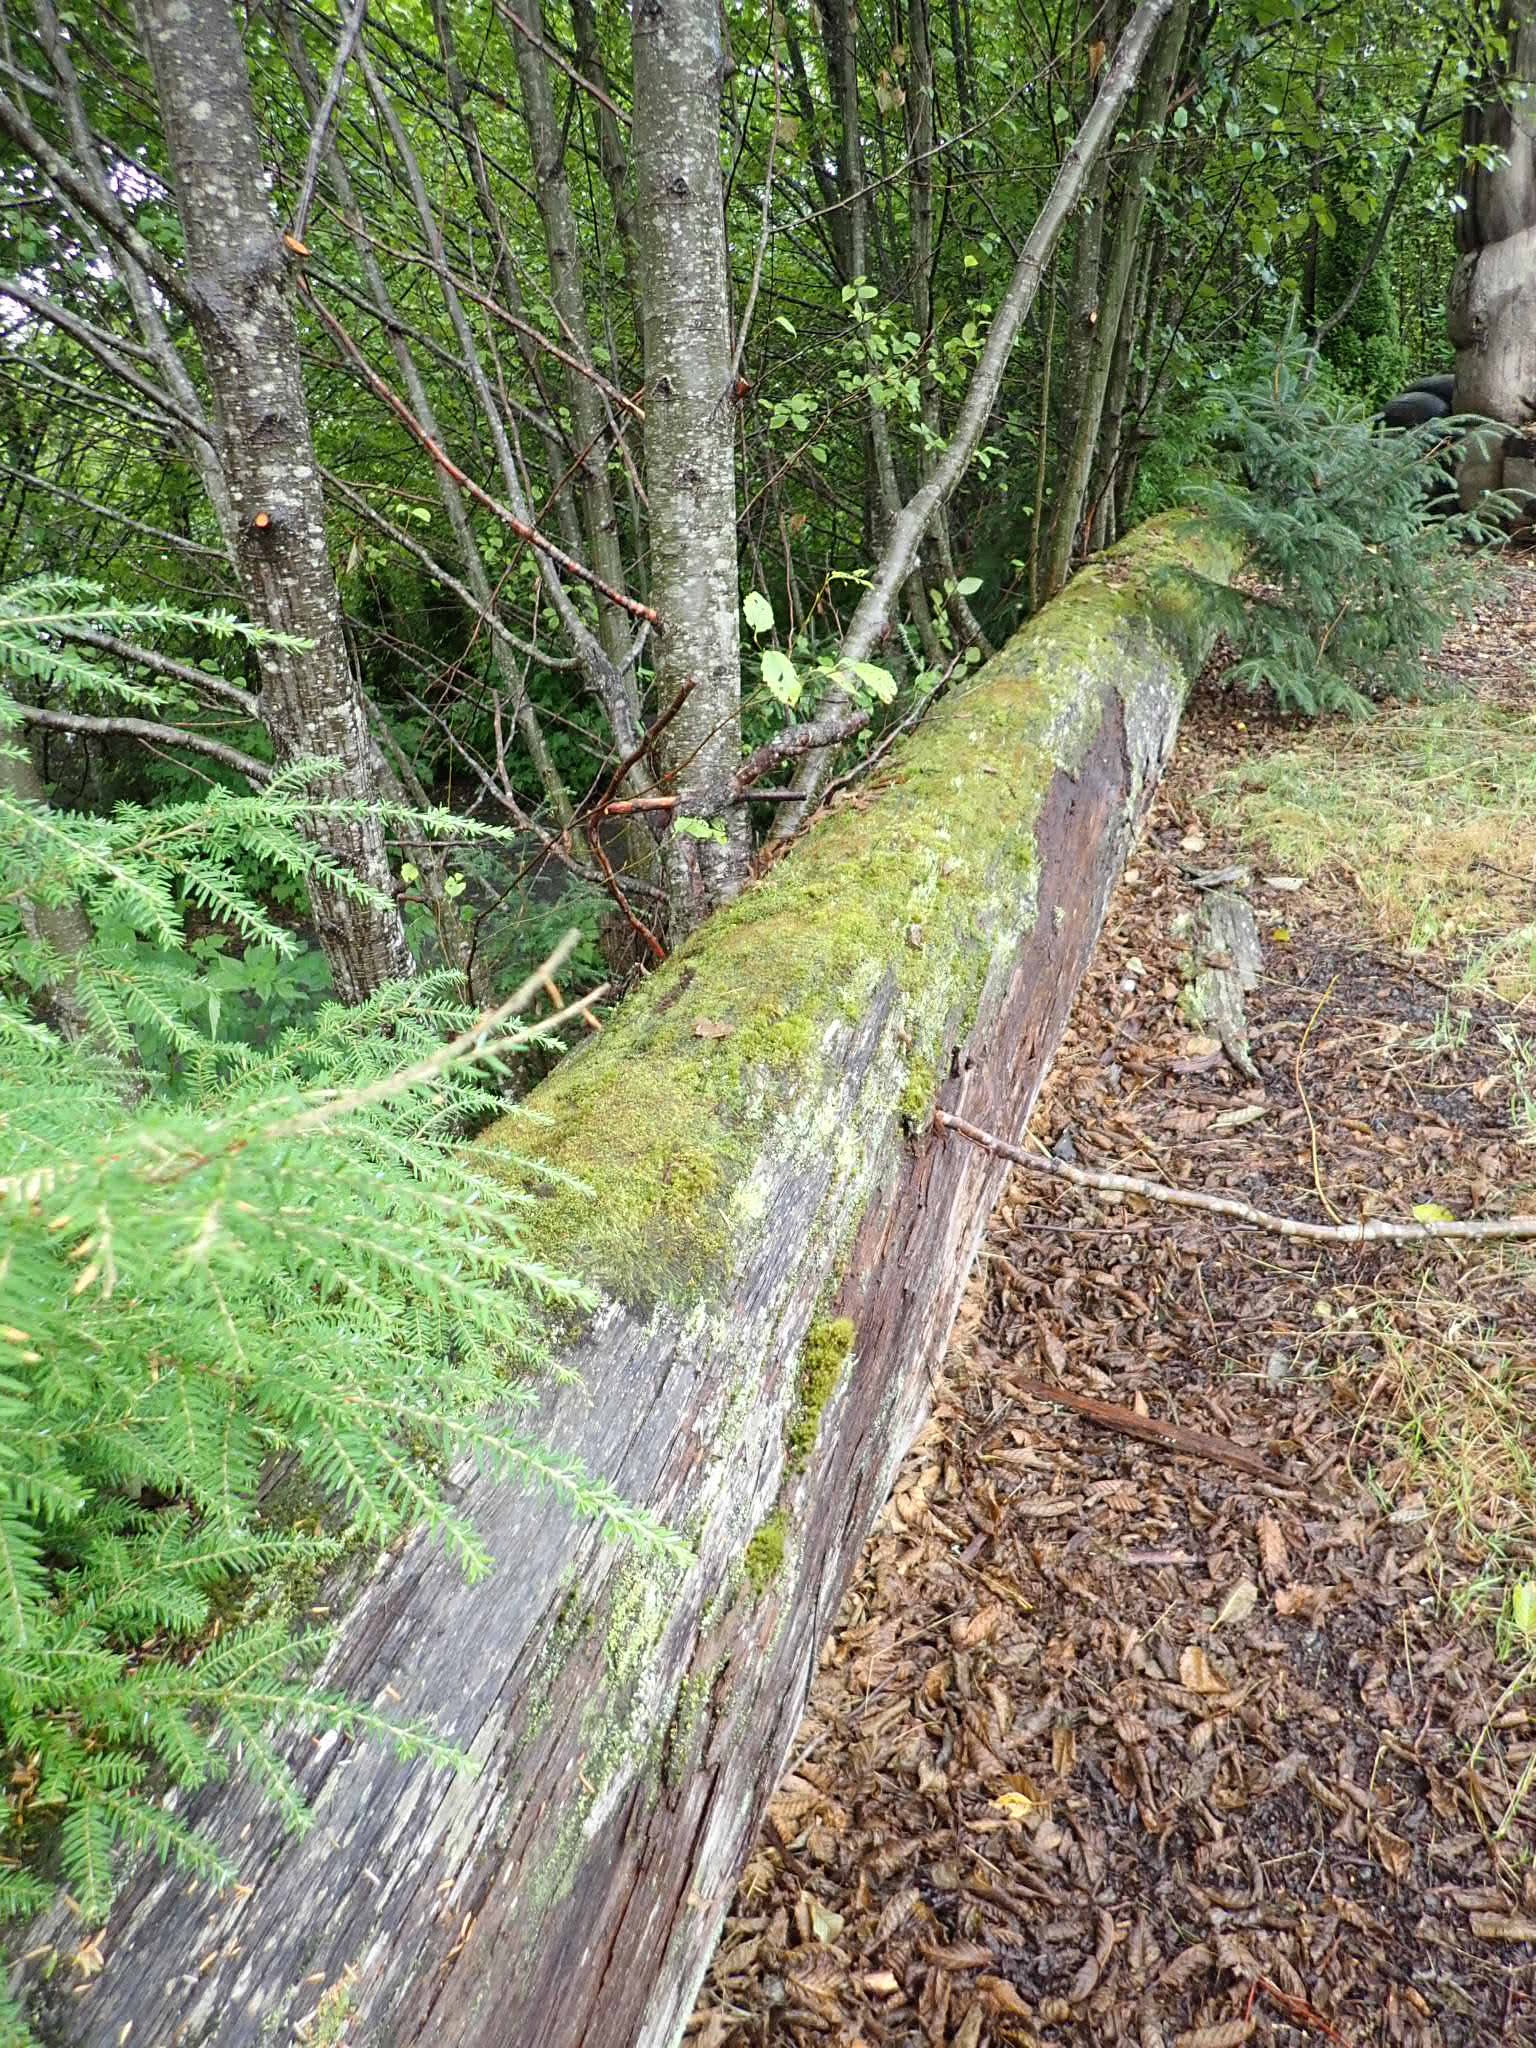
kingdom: Plantae
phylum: Bryophyta
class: Bryopsida
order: Bryales
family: Mniaceae
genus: Rhizomnium
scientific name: Rhizomnium glabrescens
